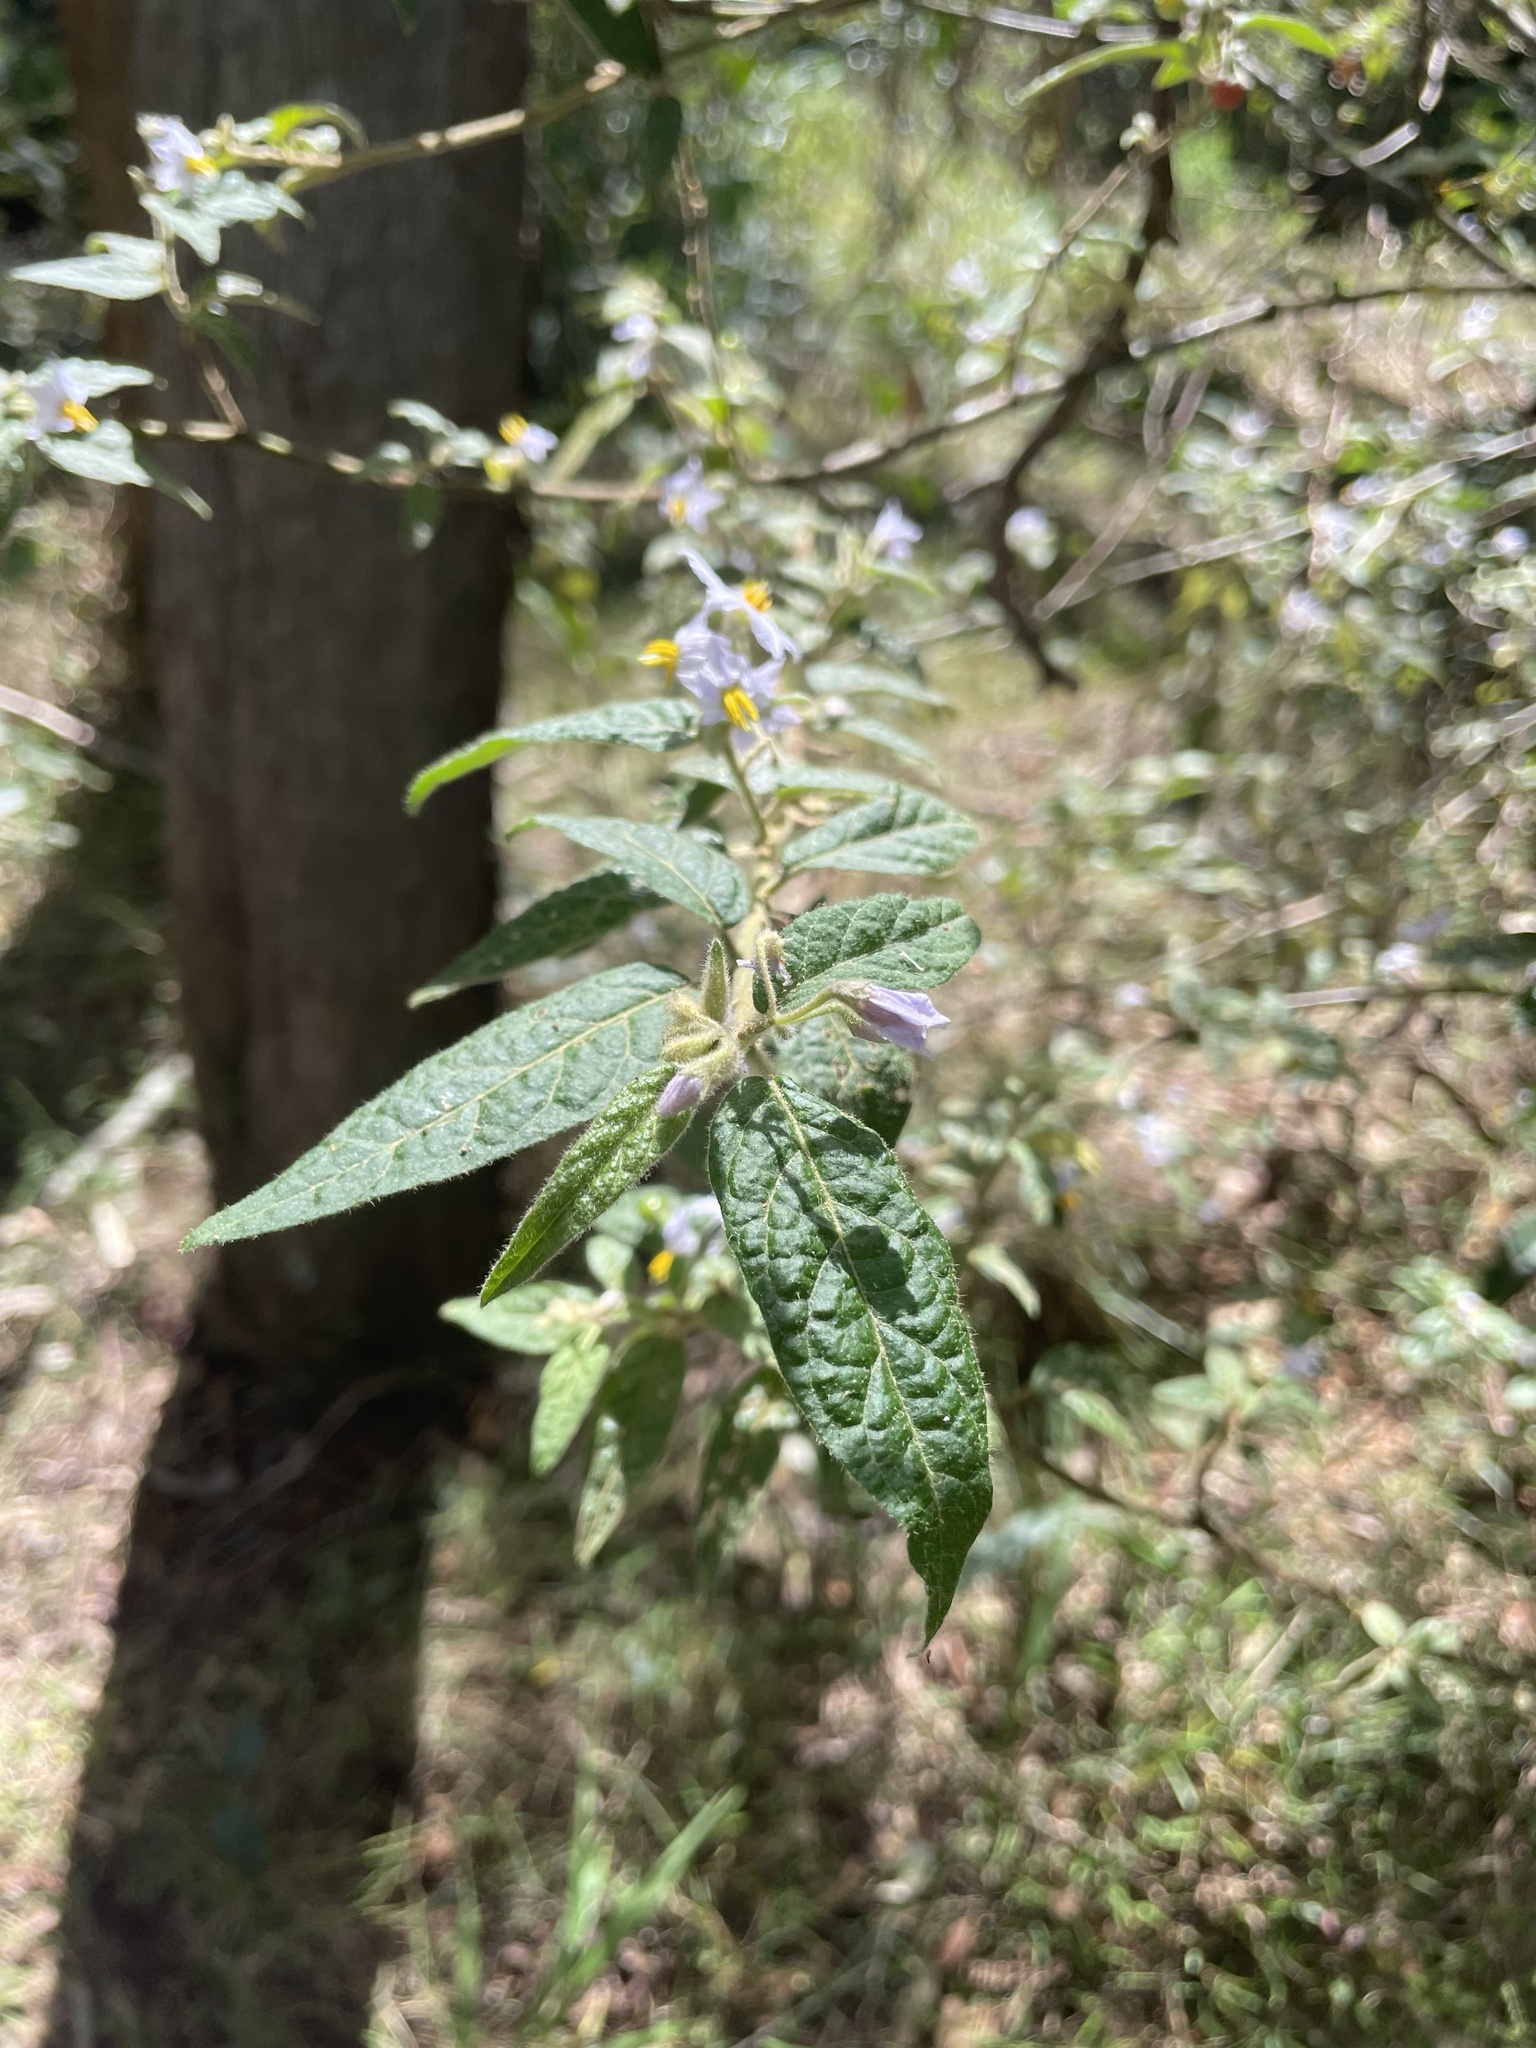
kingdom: Plantae
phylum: Tracheophyta
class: Magnoliopsida
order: Solanales
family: Solanaceae
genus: Solanum
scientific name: Solanum stelligerum
